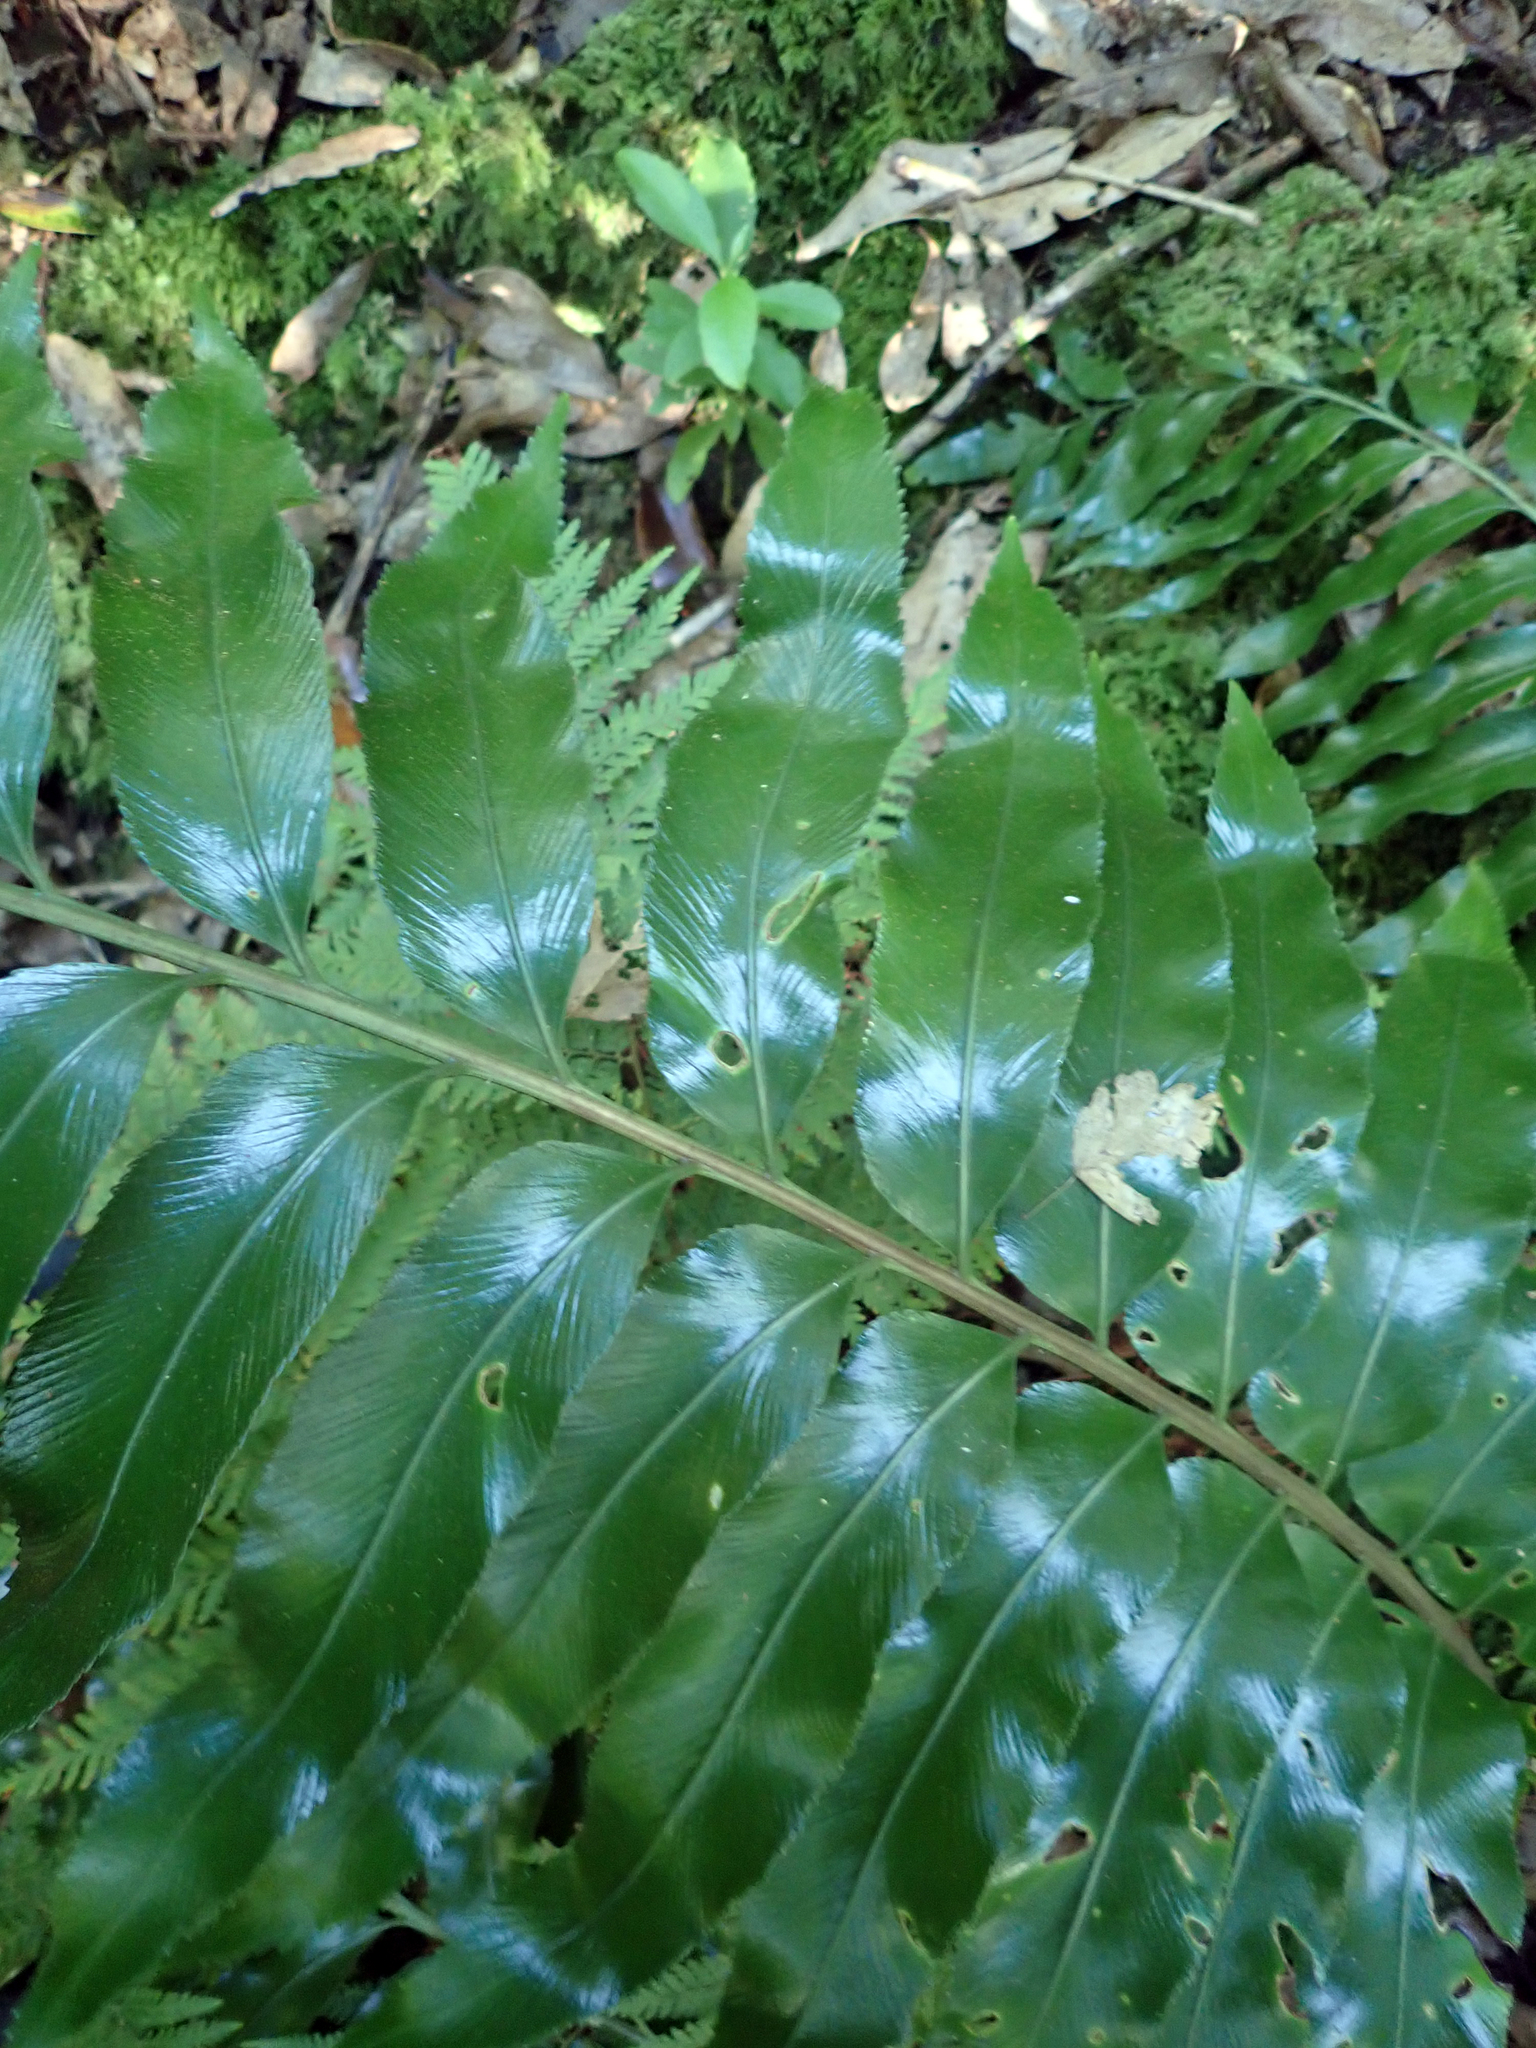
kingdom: Plantae
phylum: Tracheophyta
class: Polypodiopsida
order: Polypodiales
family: Aspleniaceae
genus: Asplenium
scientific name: Asplenium oblongifolium
